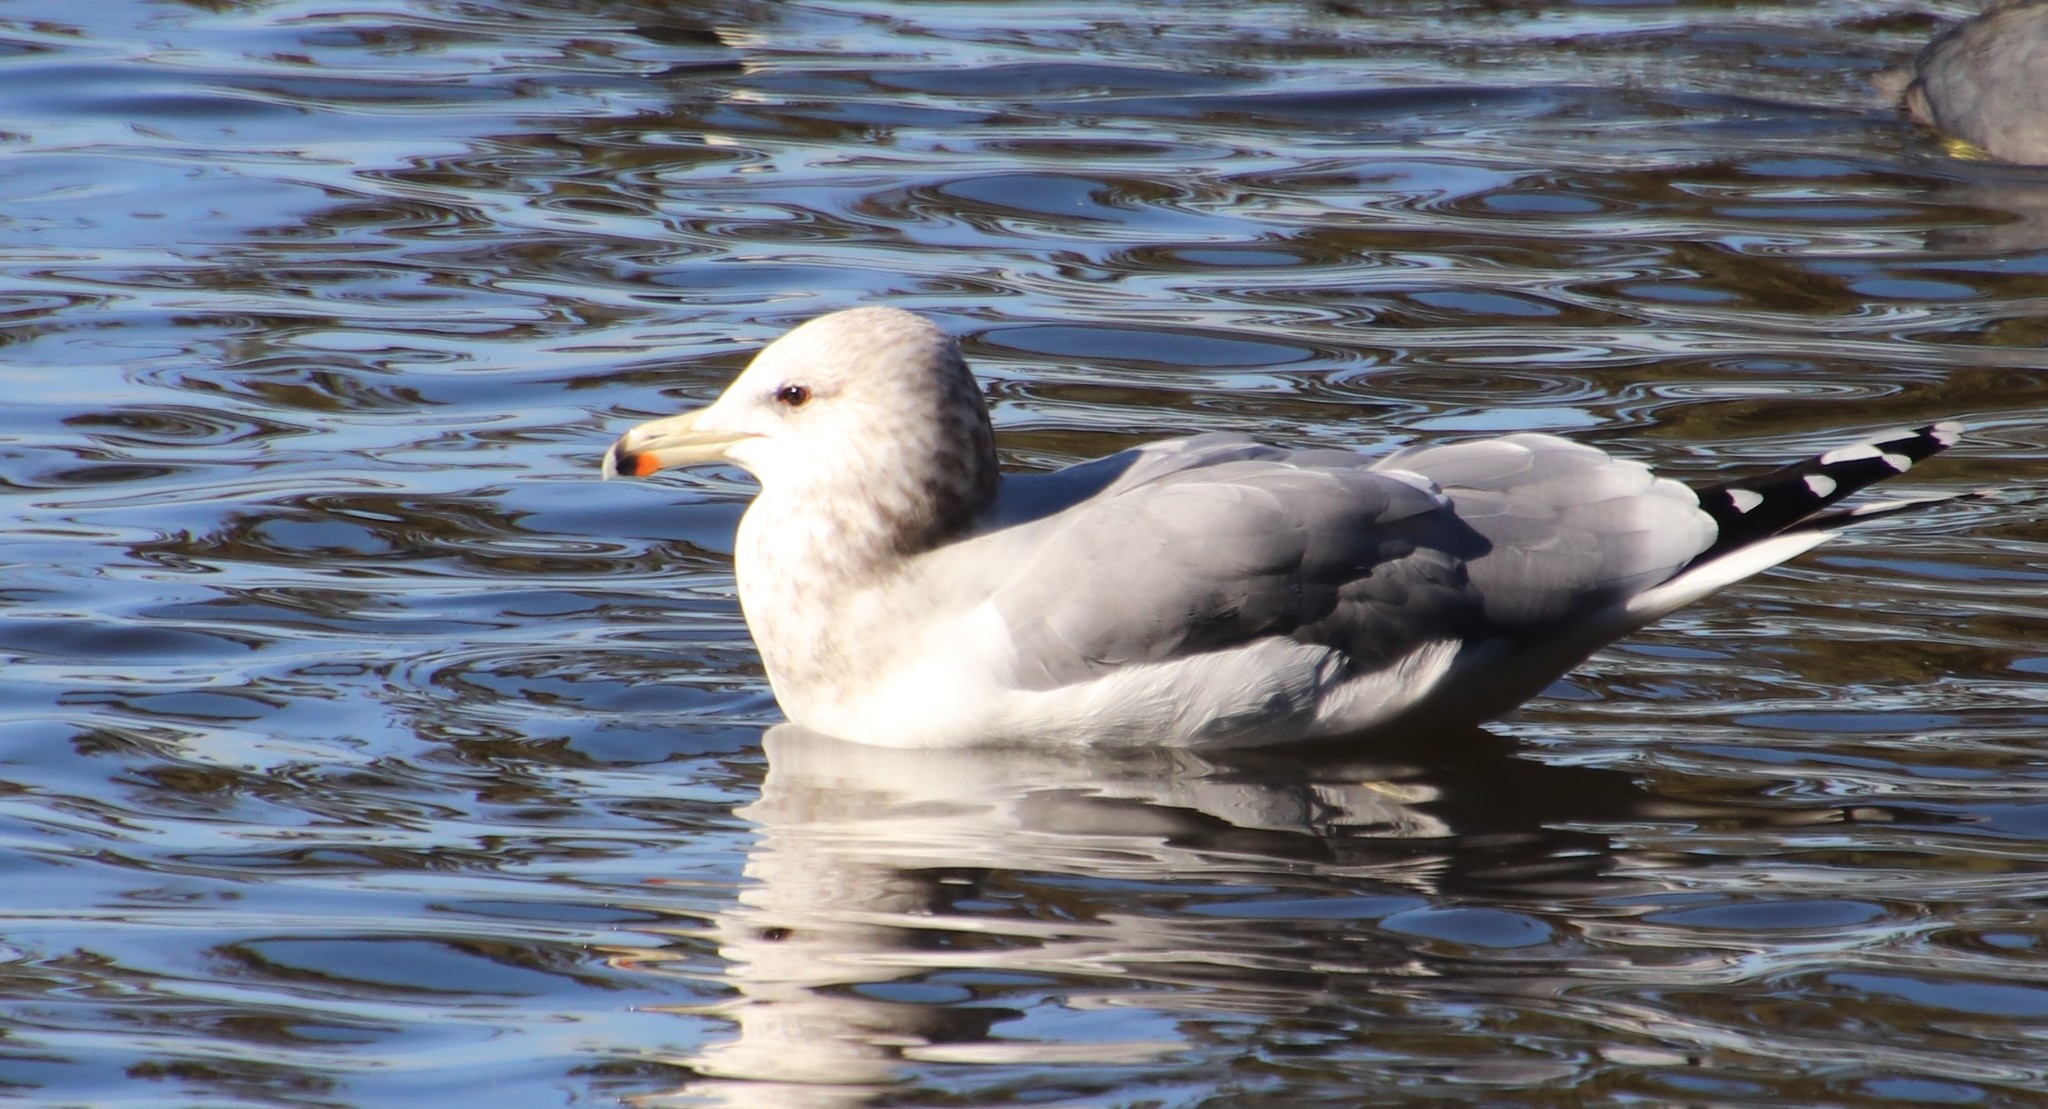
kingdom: Animalia
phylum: Chordata
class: Aves
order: Charadriiformes
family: Laridae
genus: Larus
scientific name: Larus californicus
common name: California gull
